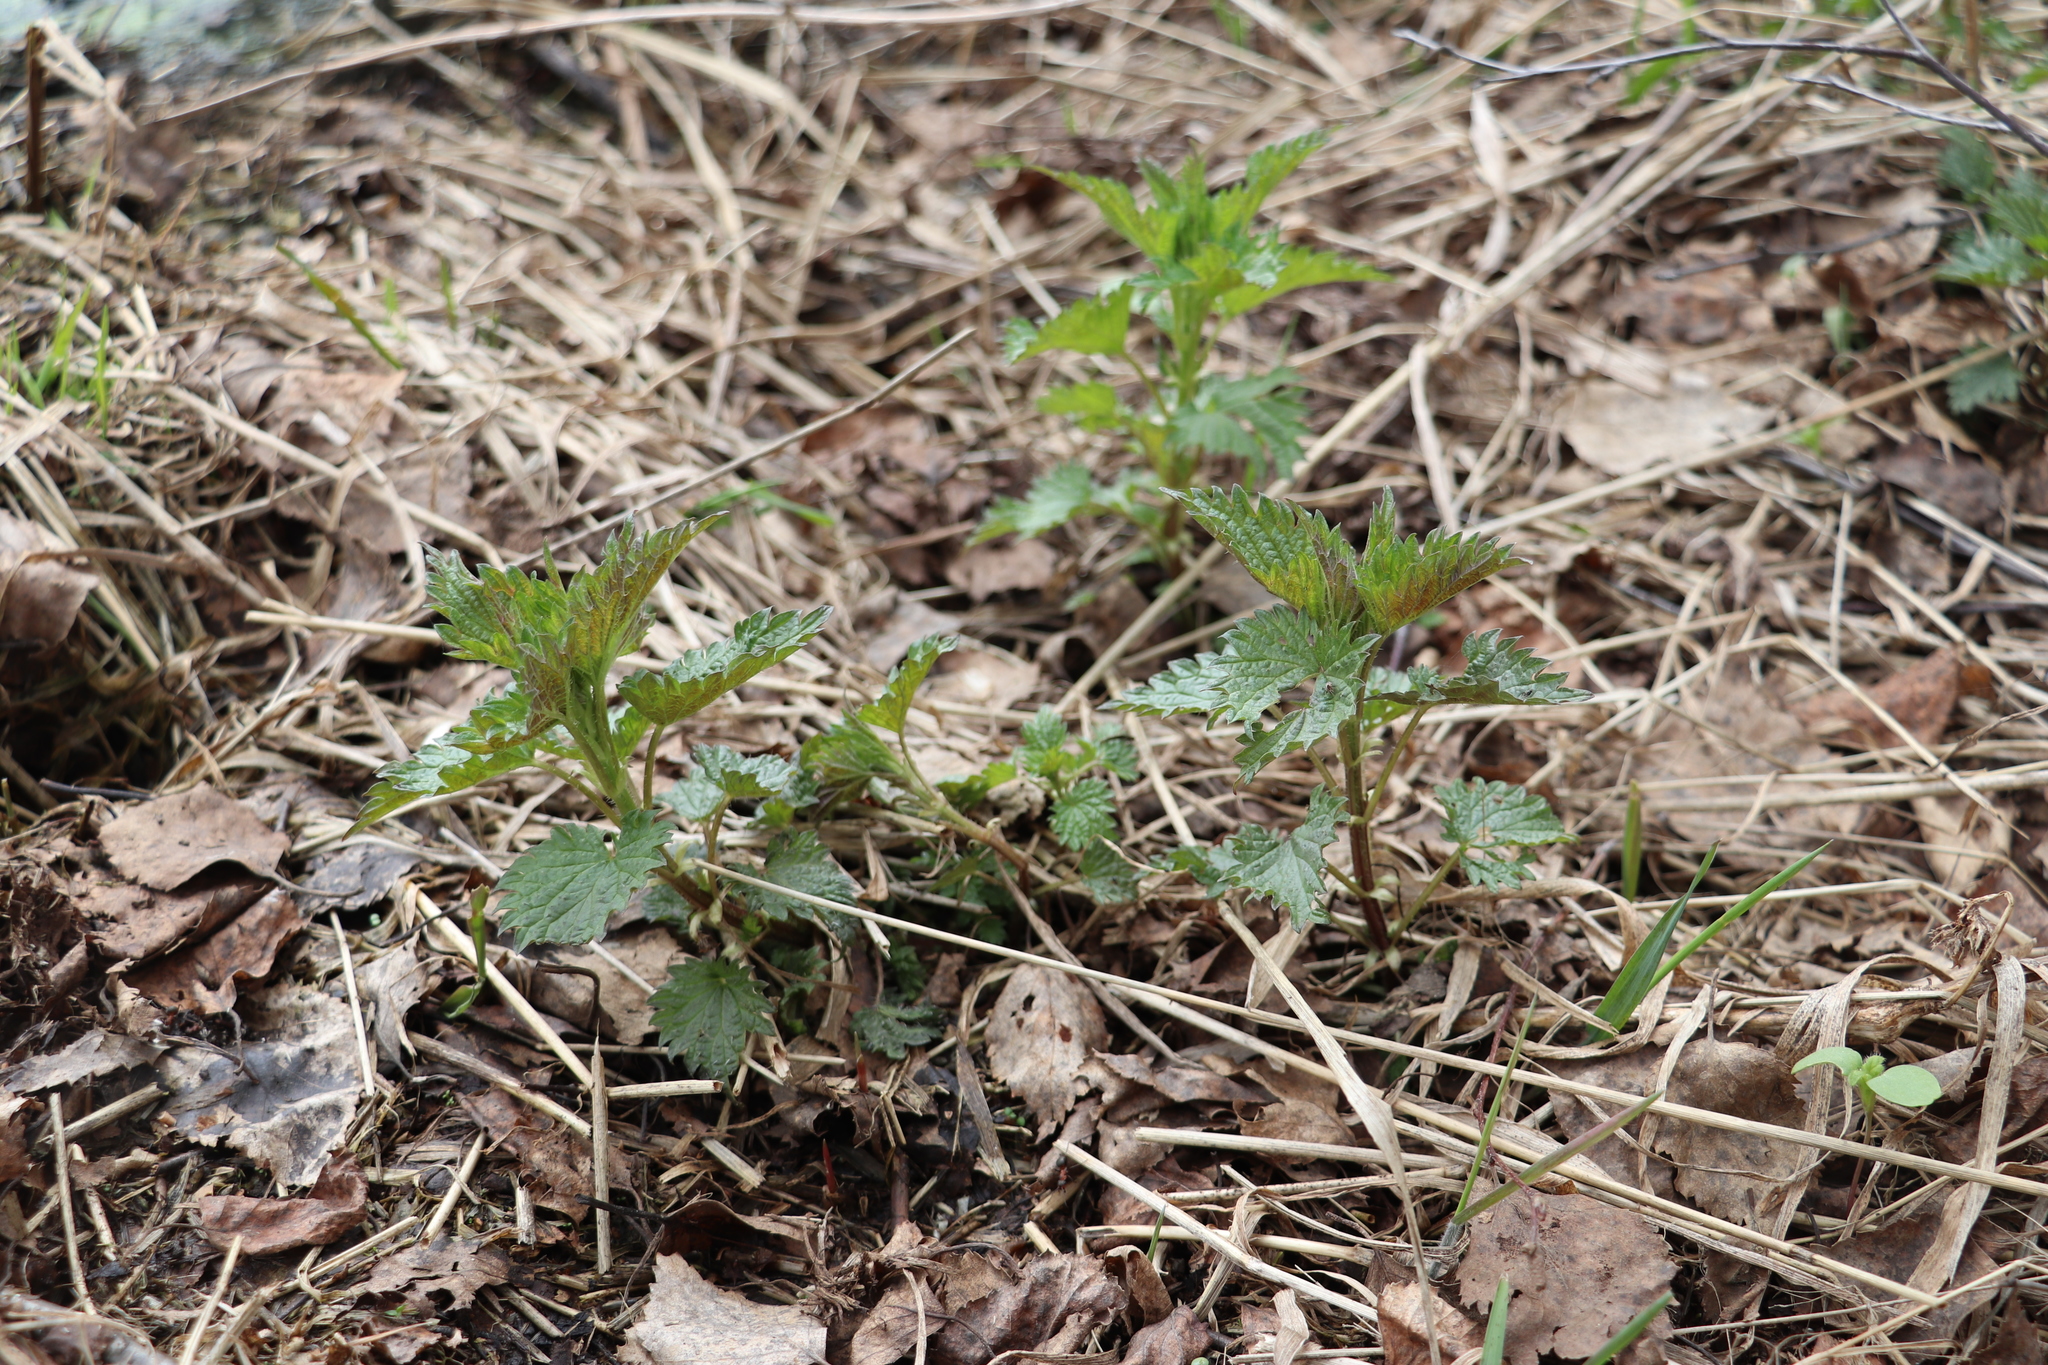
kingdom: Plantae
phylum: Tracheophyta
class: Magnoliopsida
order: Rosales
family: Urticaceae
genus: Urtica
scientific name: Urtica dioica
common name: Common nettle
